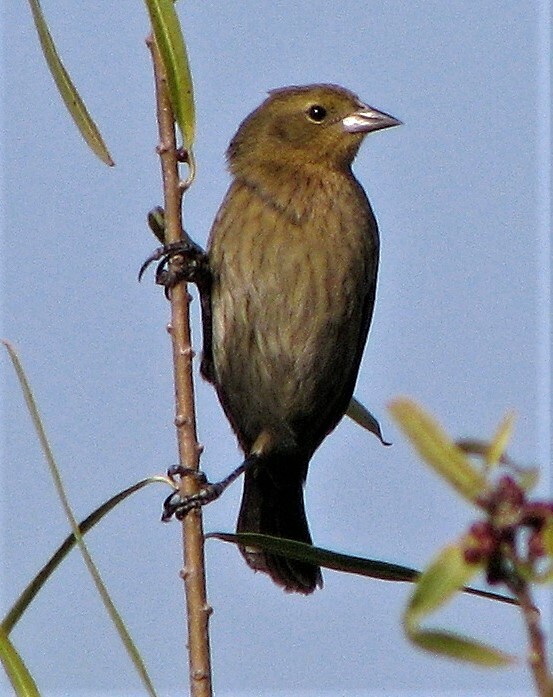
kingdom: Animalia
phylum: Chordata
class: Aves
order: Passeriformes
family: Icteridae
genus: Chrysomus
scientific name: Chrysomus ruficapillus
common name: Chestnut-capped blackbird
